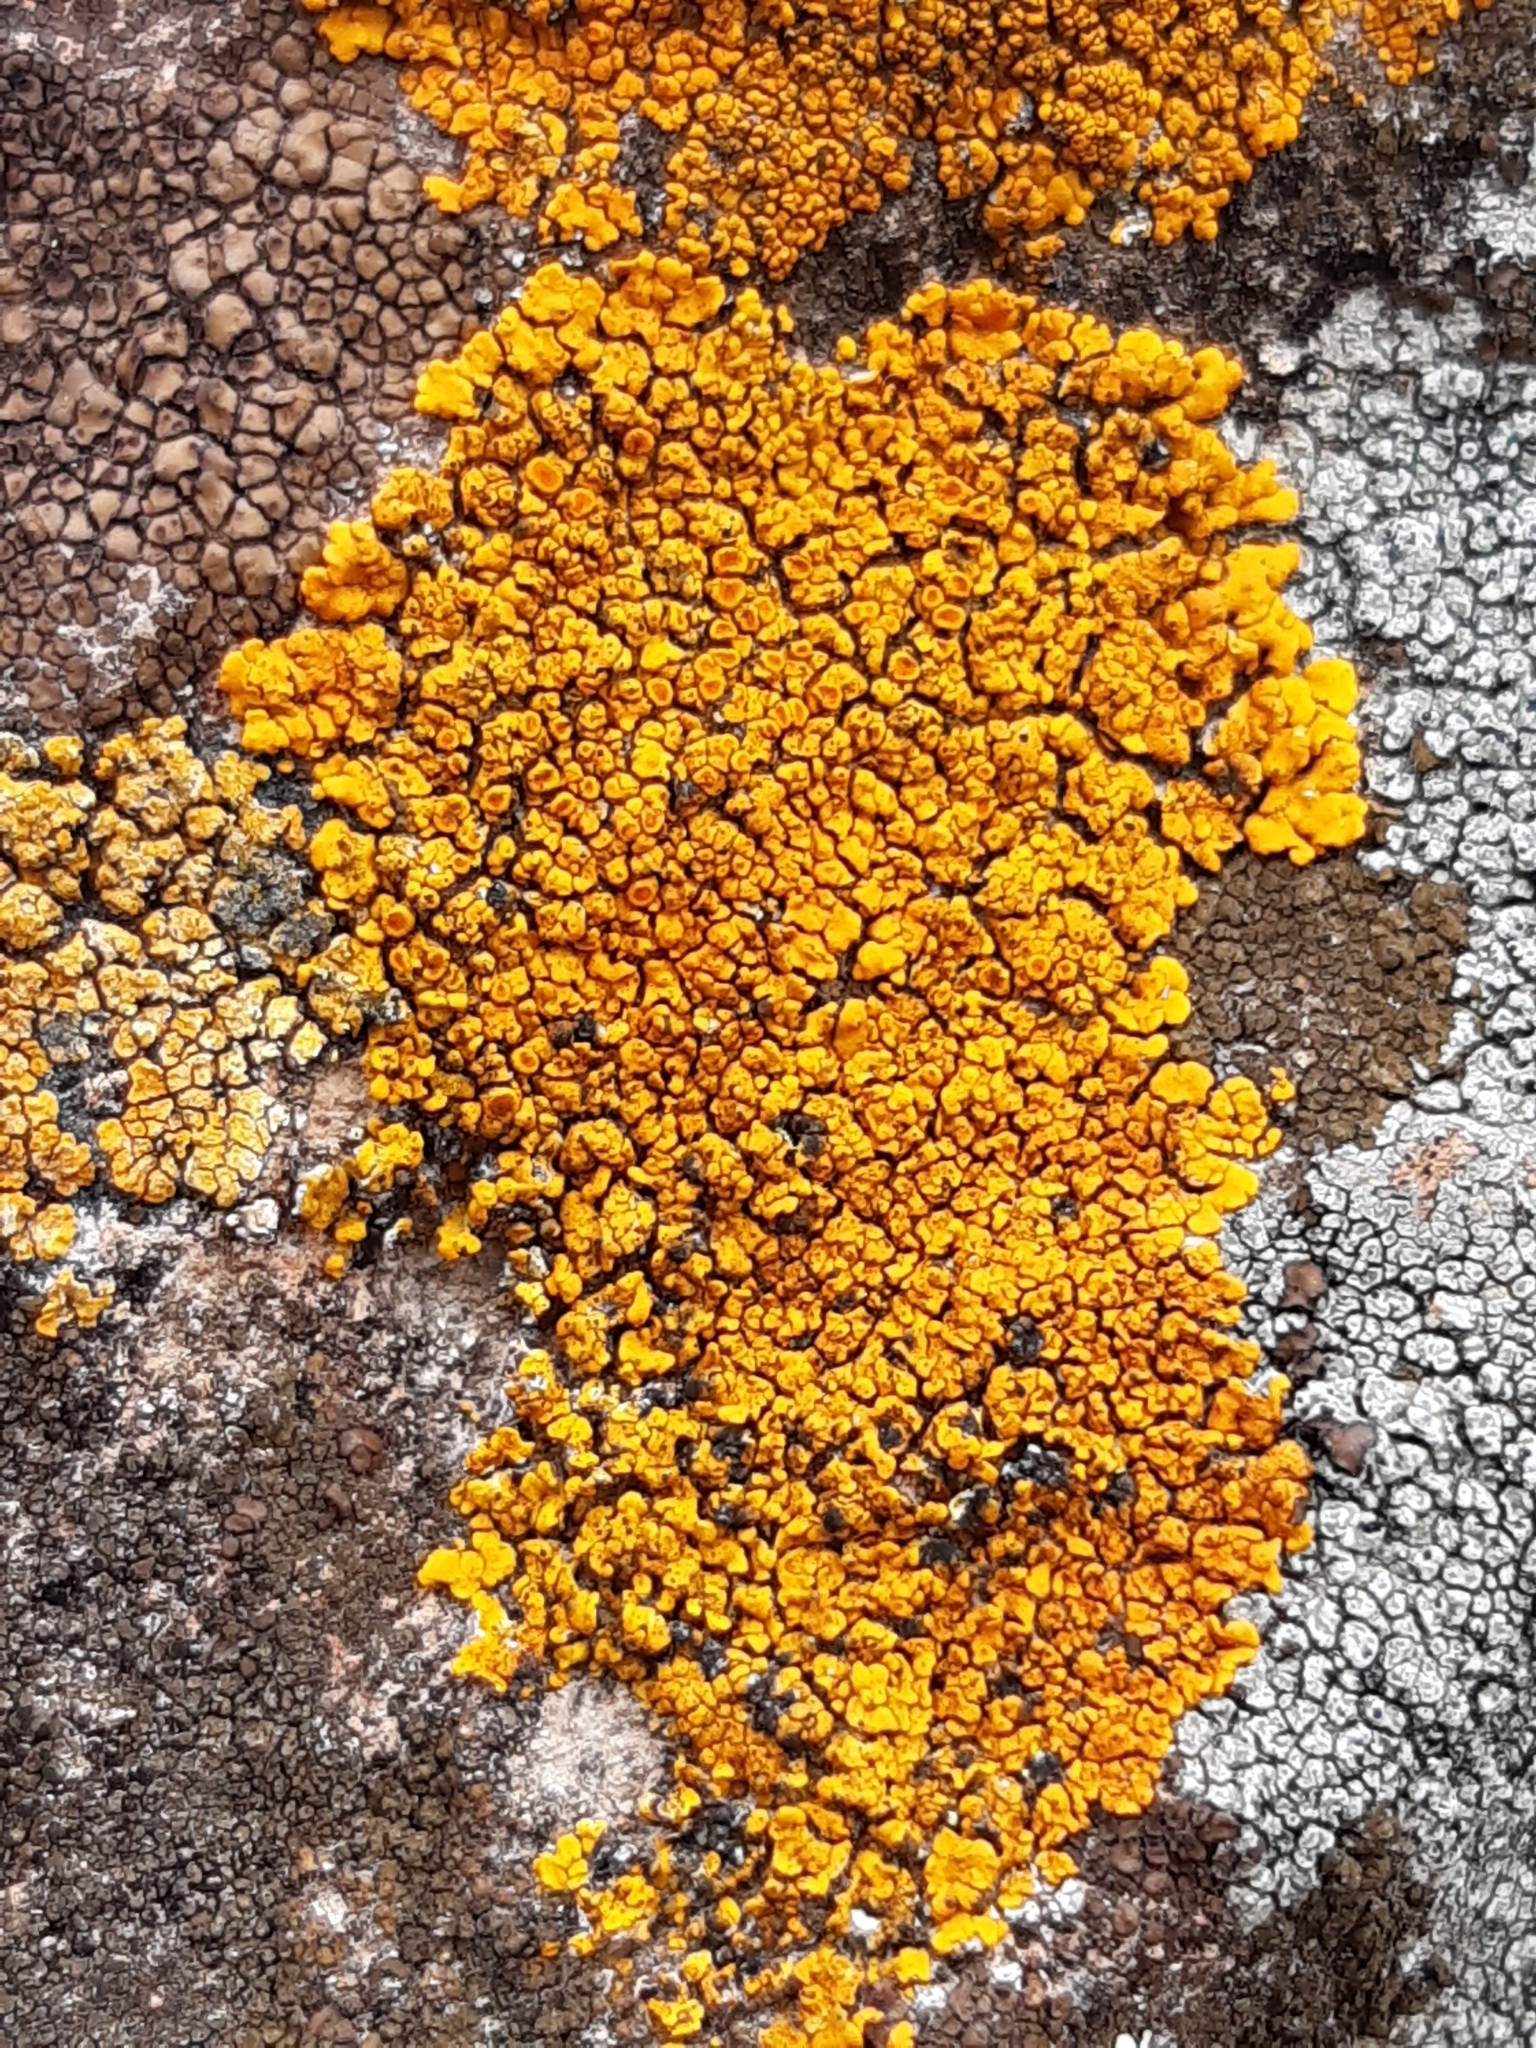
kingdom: Fungi
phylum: Ascomycota
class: Lecanoromycetes
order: Teloschistales
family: Teloschistaceae
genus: Squamulea
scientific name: Squamulea subsoluta
